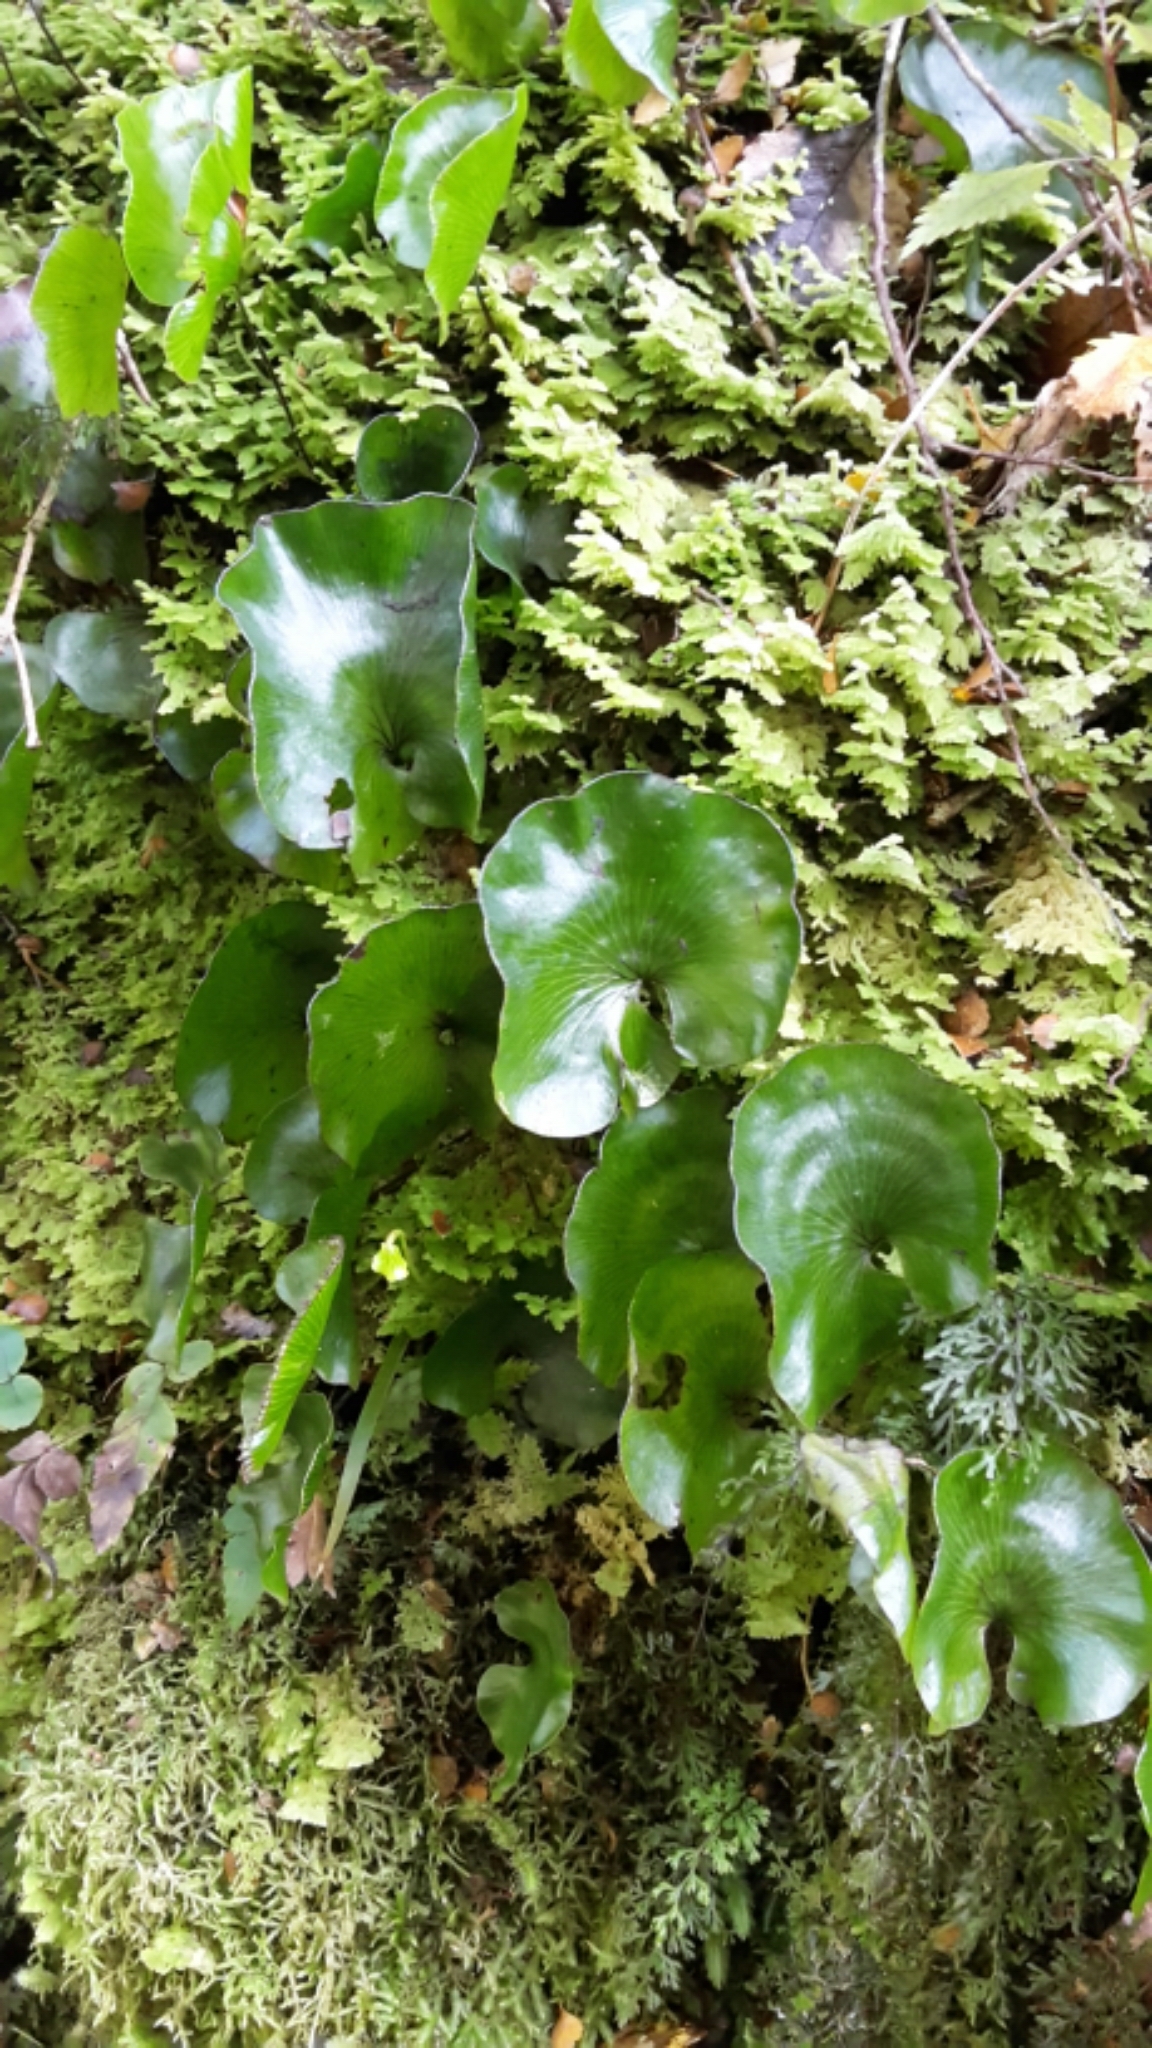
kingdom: Plantae
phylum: Tracheophyta
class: Polypodiopsida
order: Hymenophyllales
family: Hymenophyllaceae
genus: Hymenophyllum
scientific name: Hymenophyllum nephrophyllum
